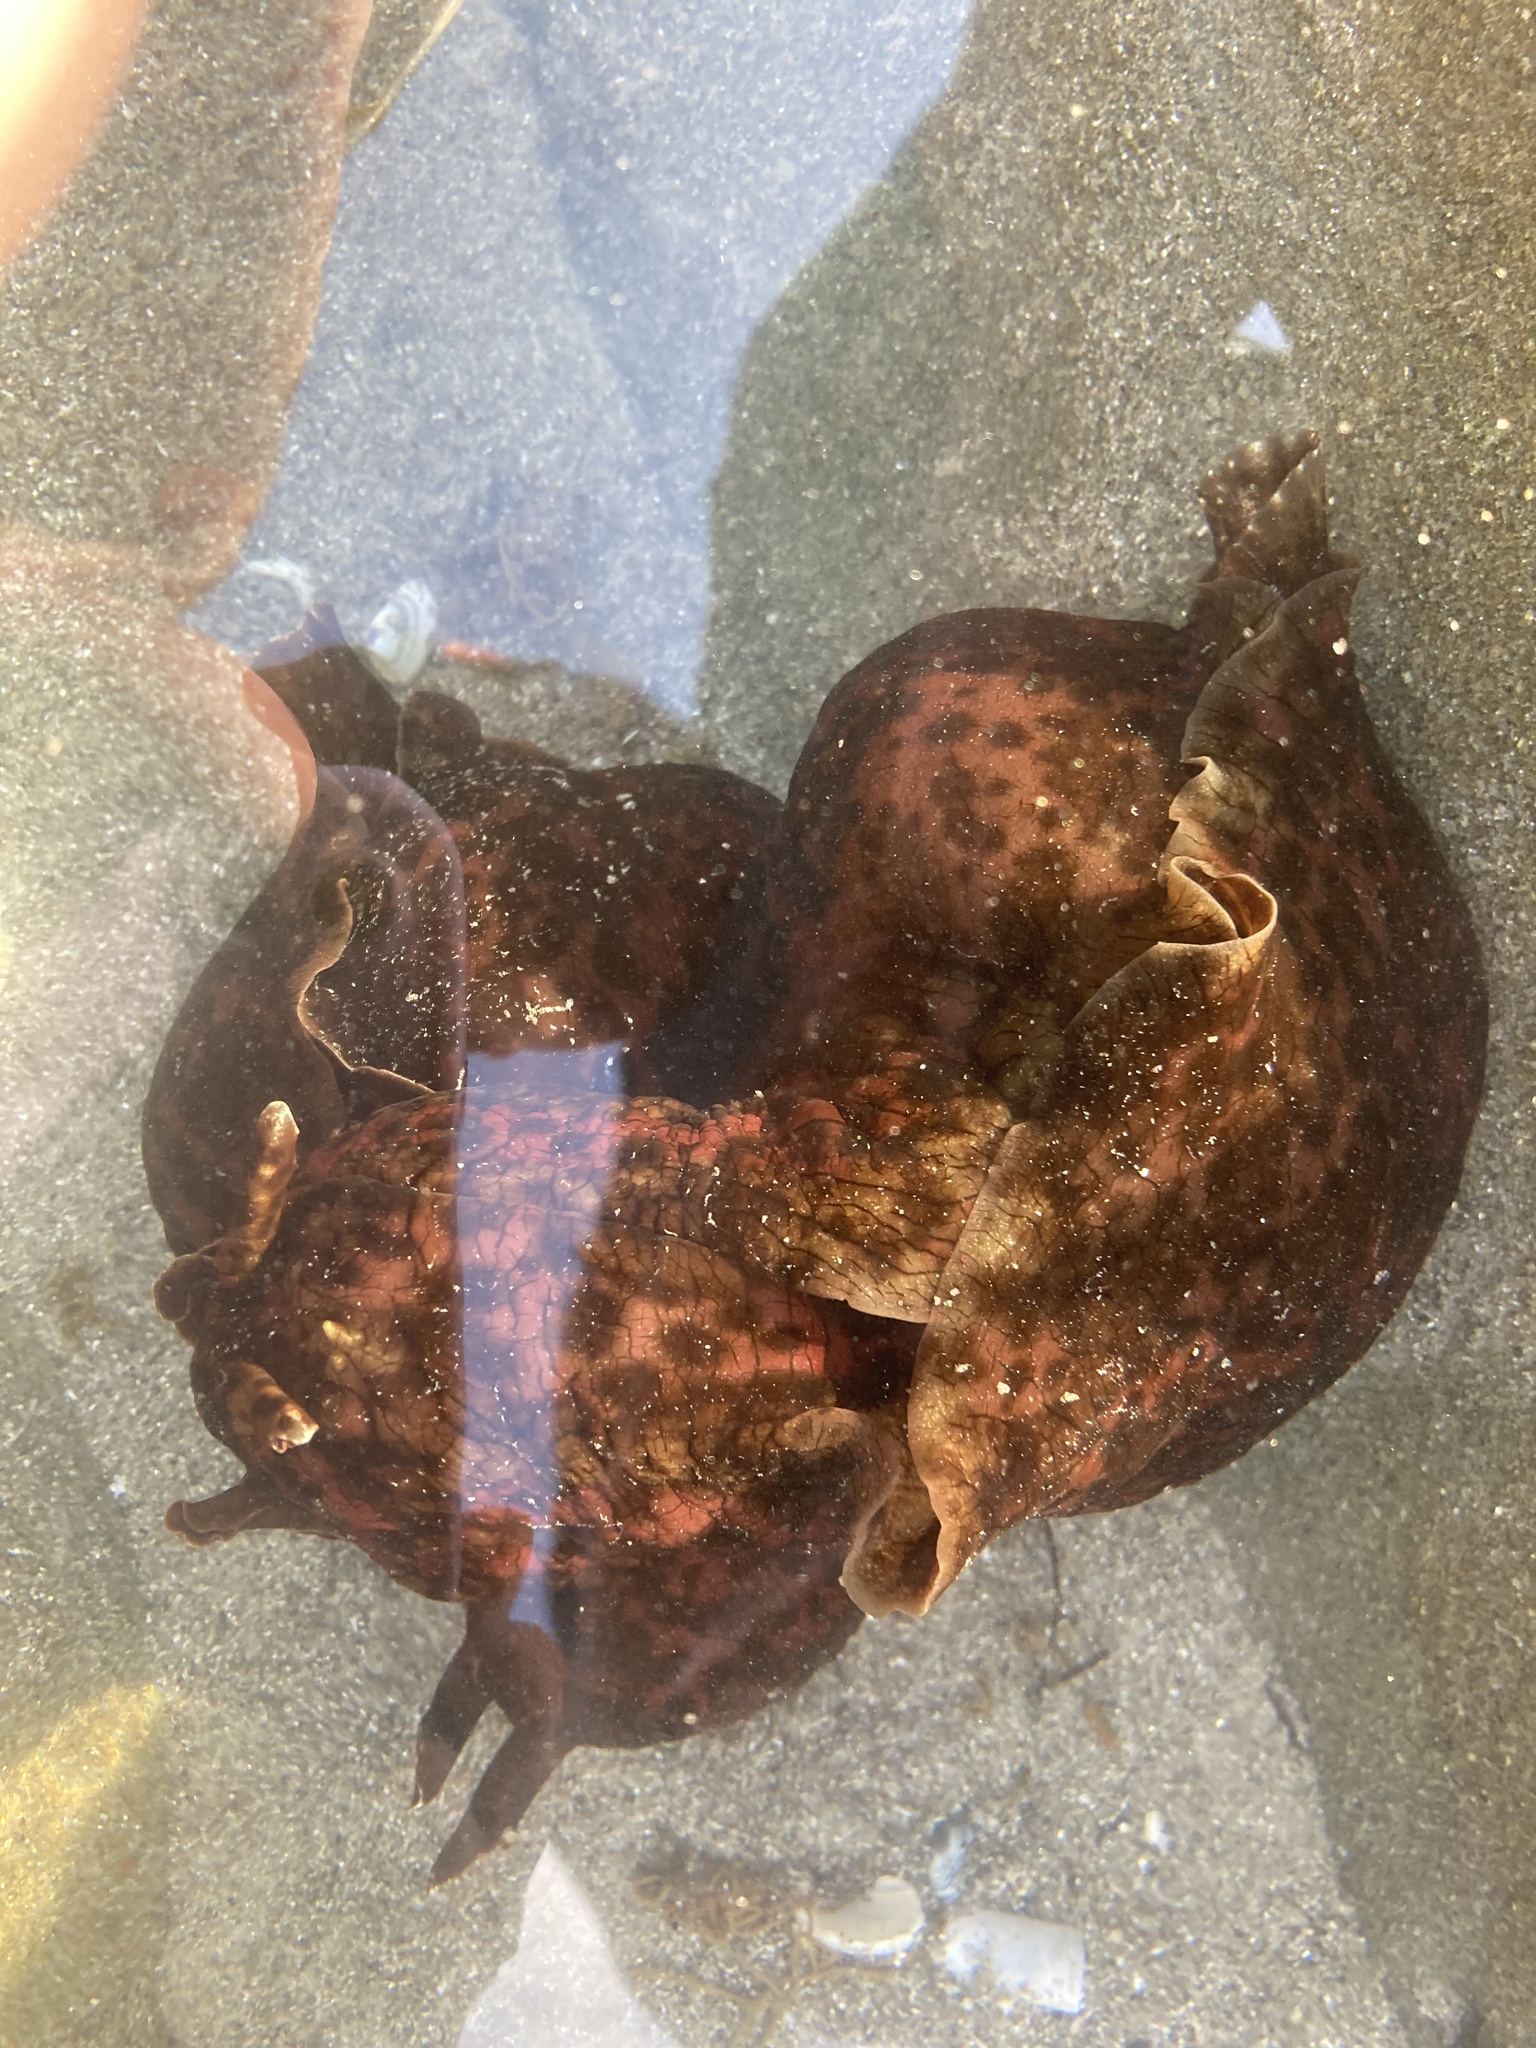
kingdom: Animalia
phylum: Mollusca
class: Gastropoda
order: Aplysiida
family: Aplysiidae
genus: Aplysia
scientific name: Aplysia californica
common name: California seahare
